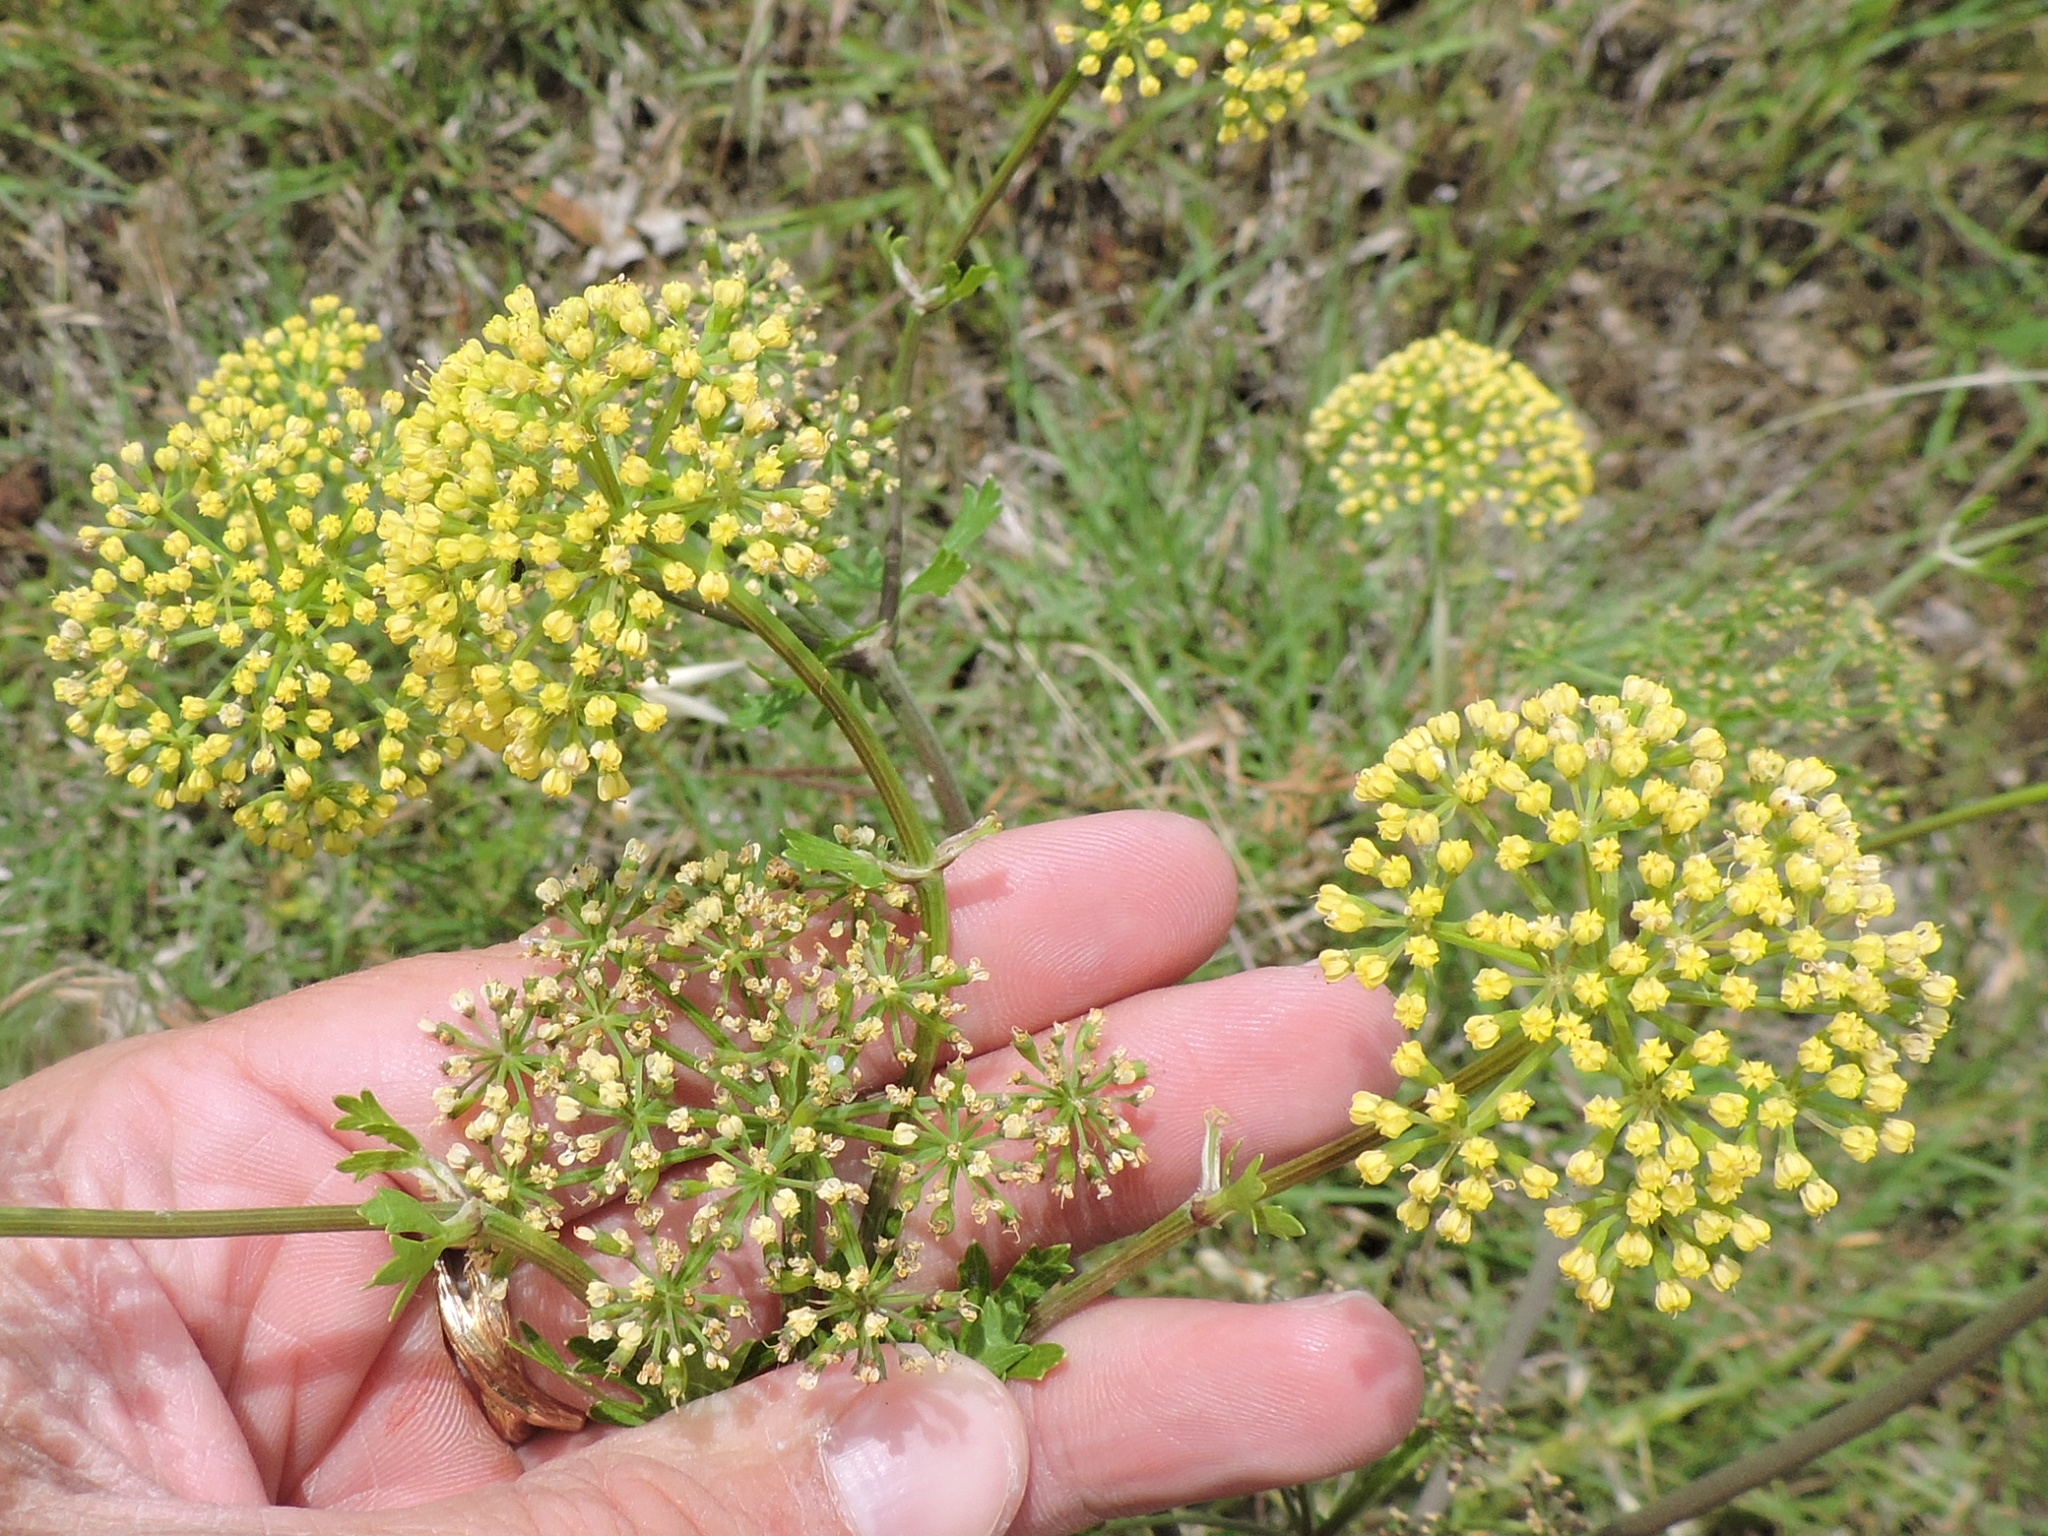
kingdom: Plantae
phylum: Tracheophyta
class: Magnoliopsida
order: Apiales
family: Apiaceae
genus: Polytaenia
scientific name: Polytaenia texana
